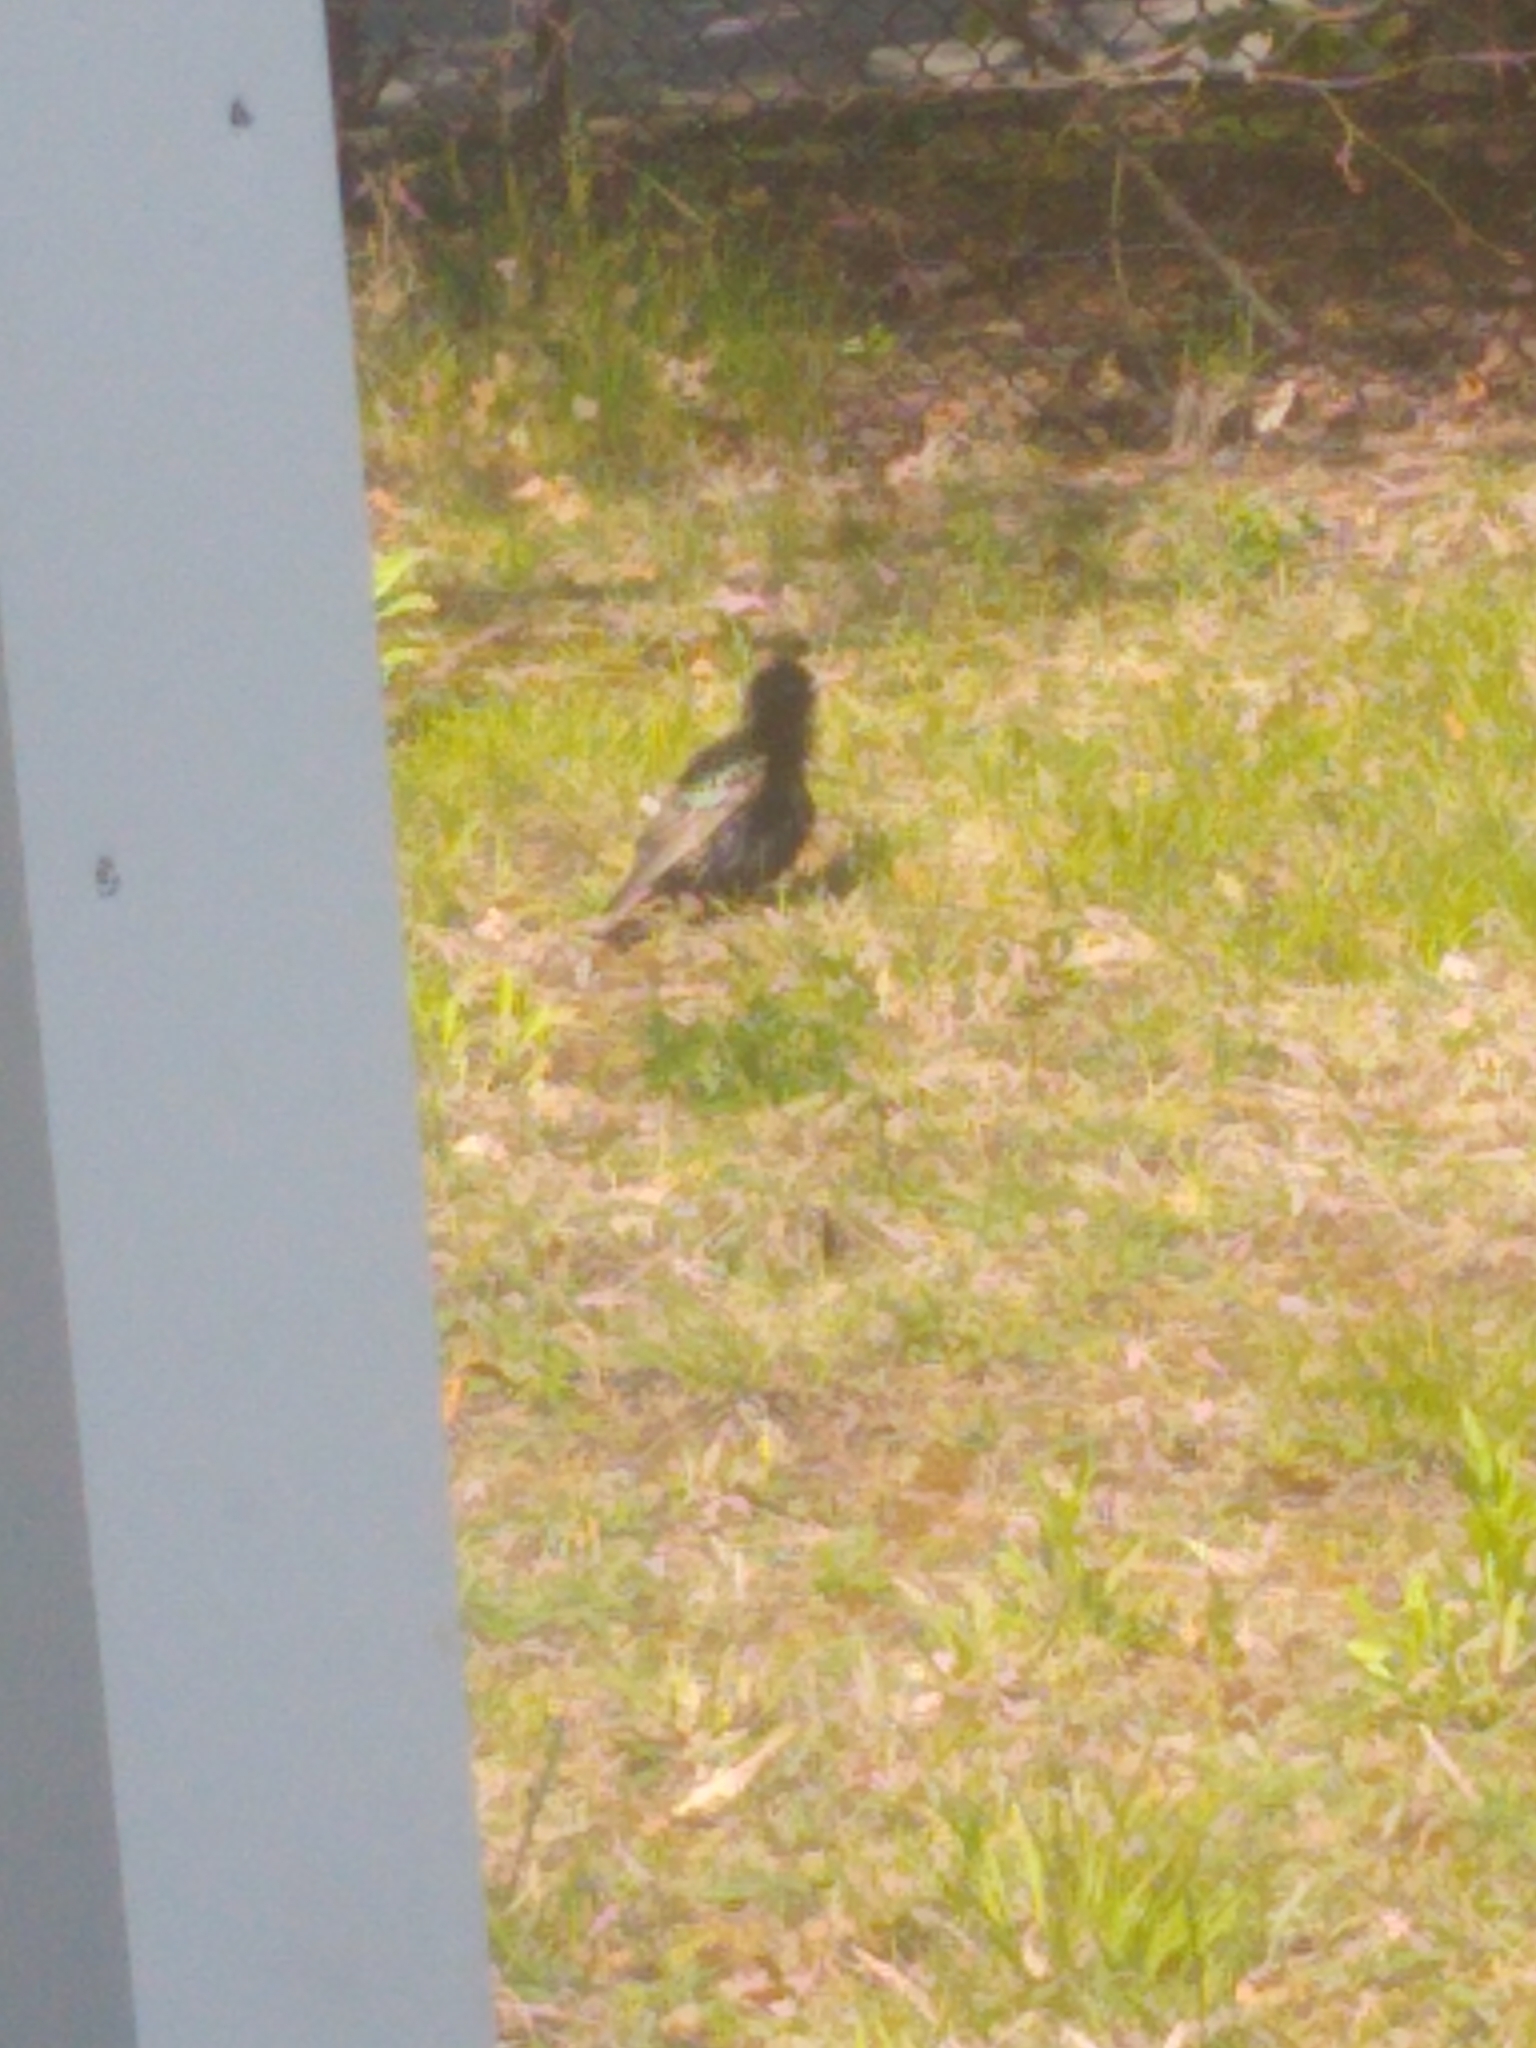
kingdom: Animalia
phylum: Chordata
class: Aves
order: Passeriformes
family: Sturnidae
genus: Sturnus
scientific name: Sturnus vulgaris
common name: Common starling
